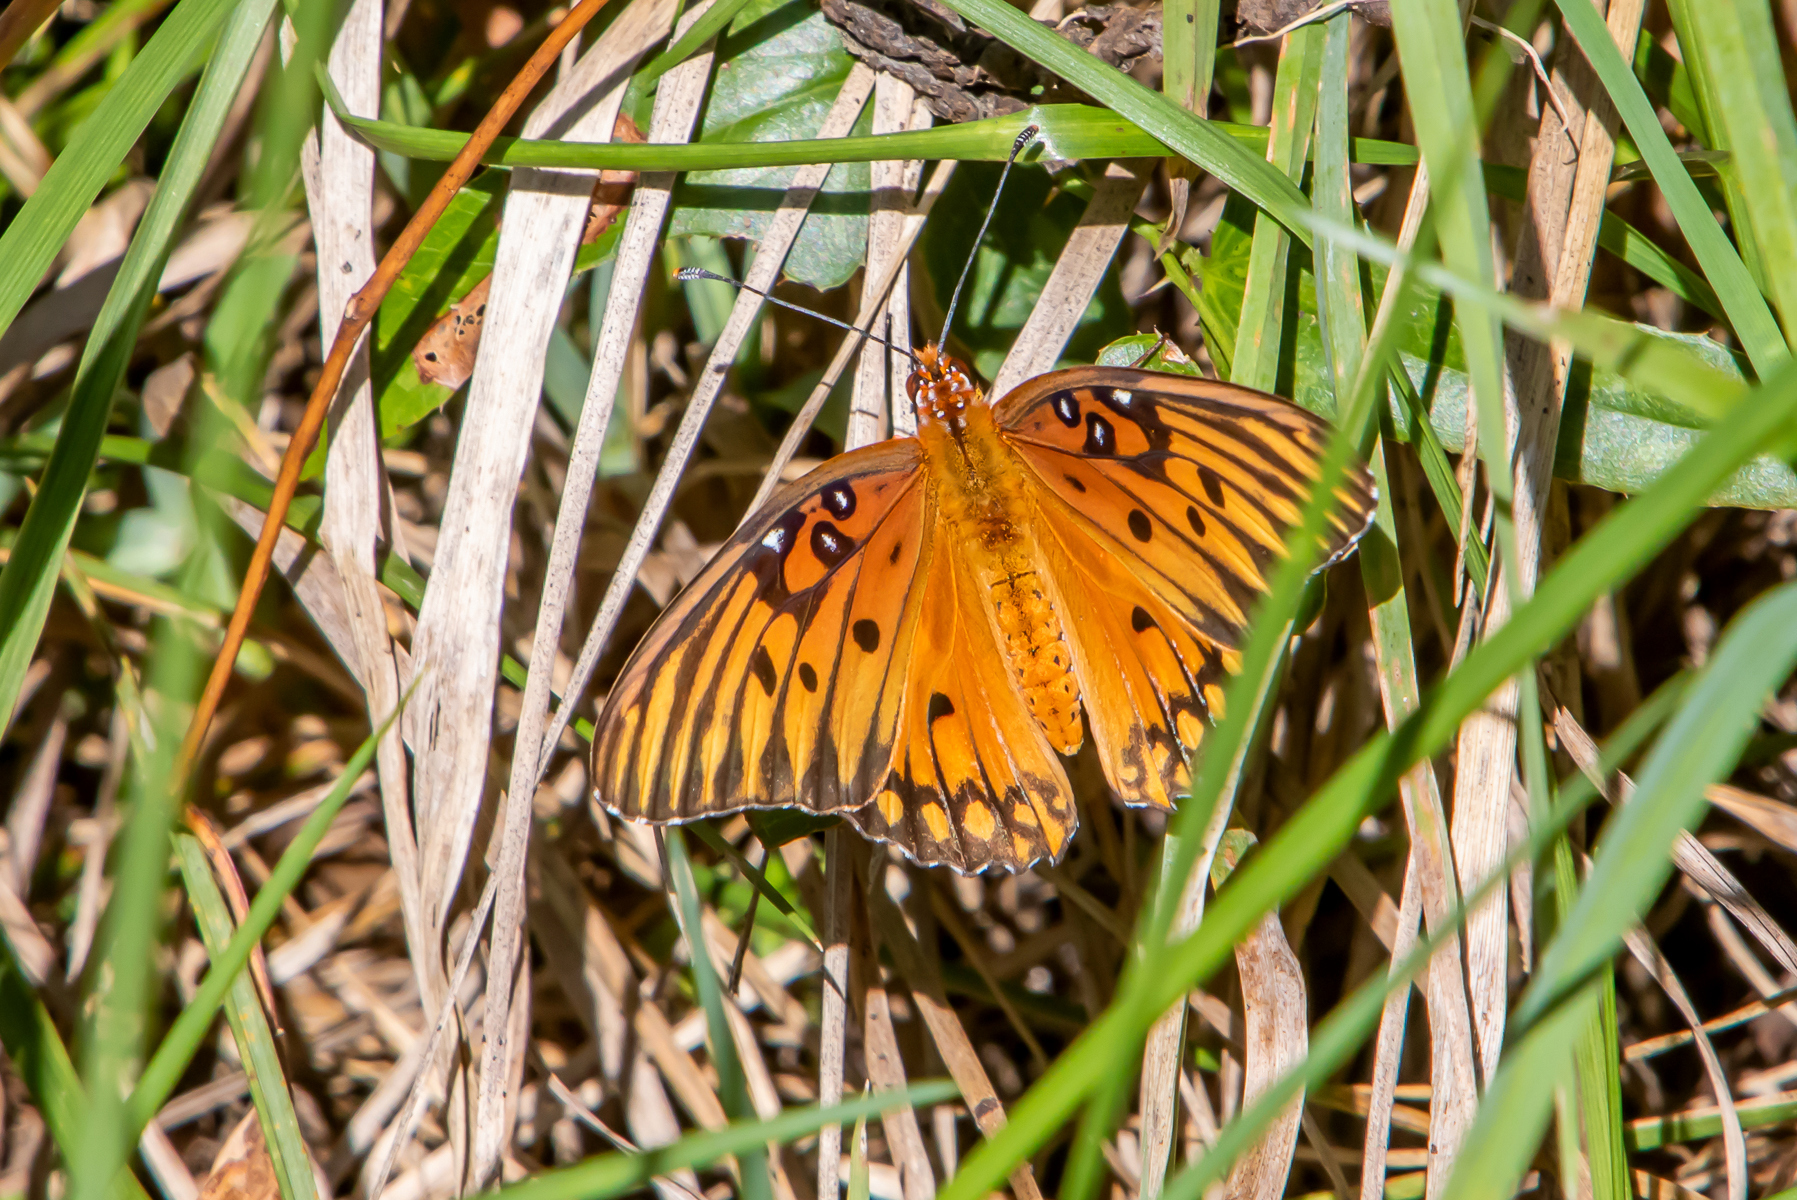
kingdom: Animalia
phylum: Arthropoda
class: Insecta
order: Lepidoptera
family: Nymphalidae
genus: Dione
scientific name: Dione vanillae
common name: Gulf fritillary
